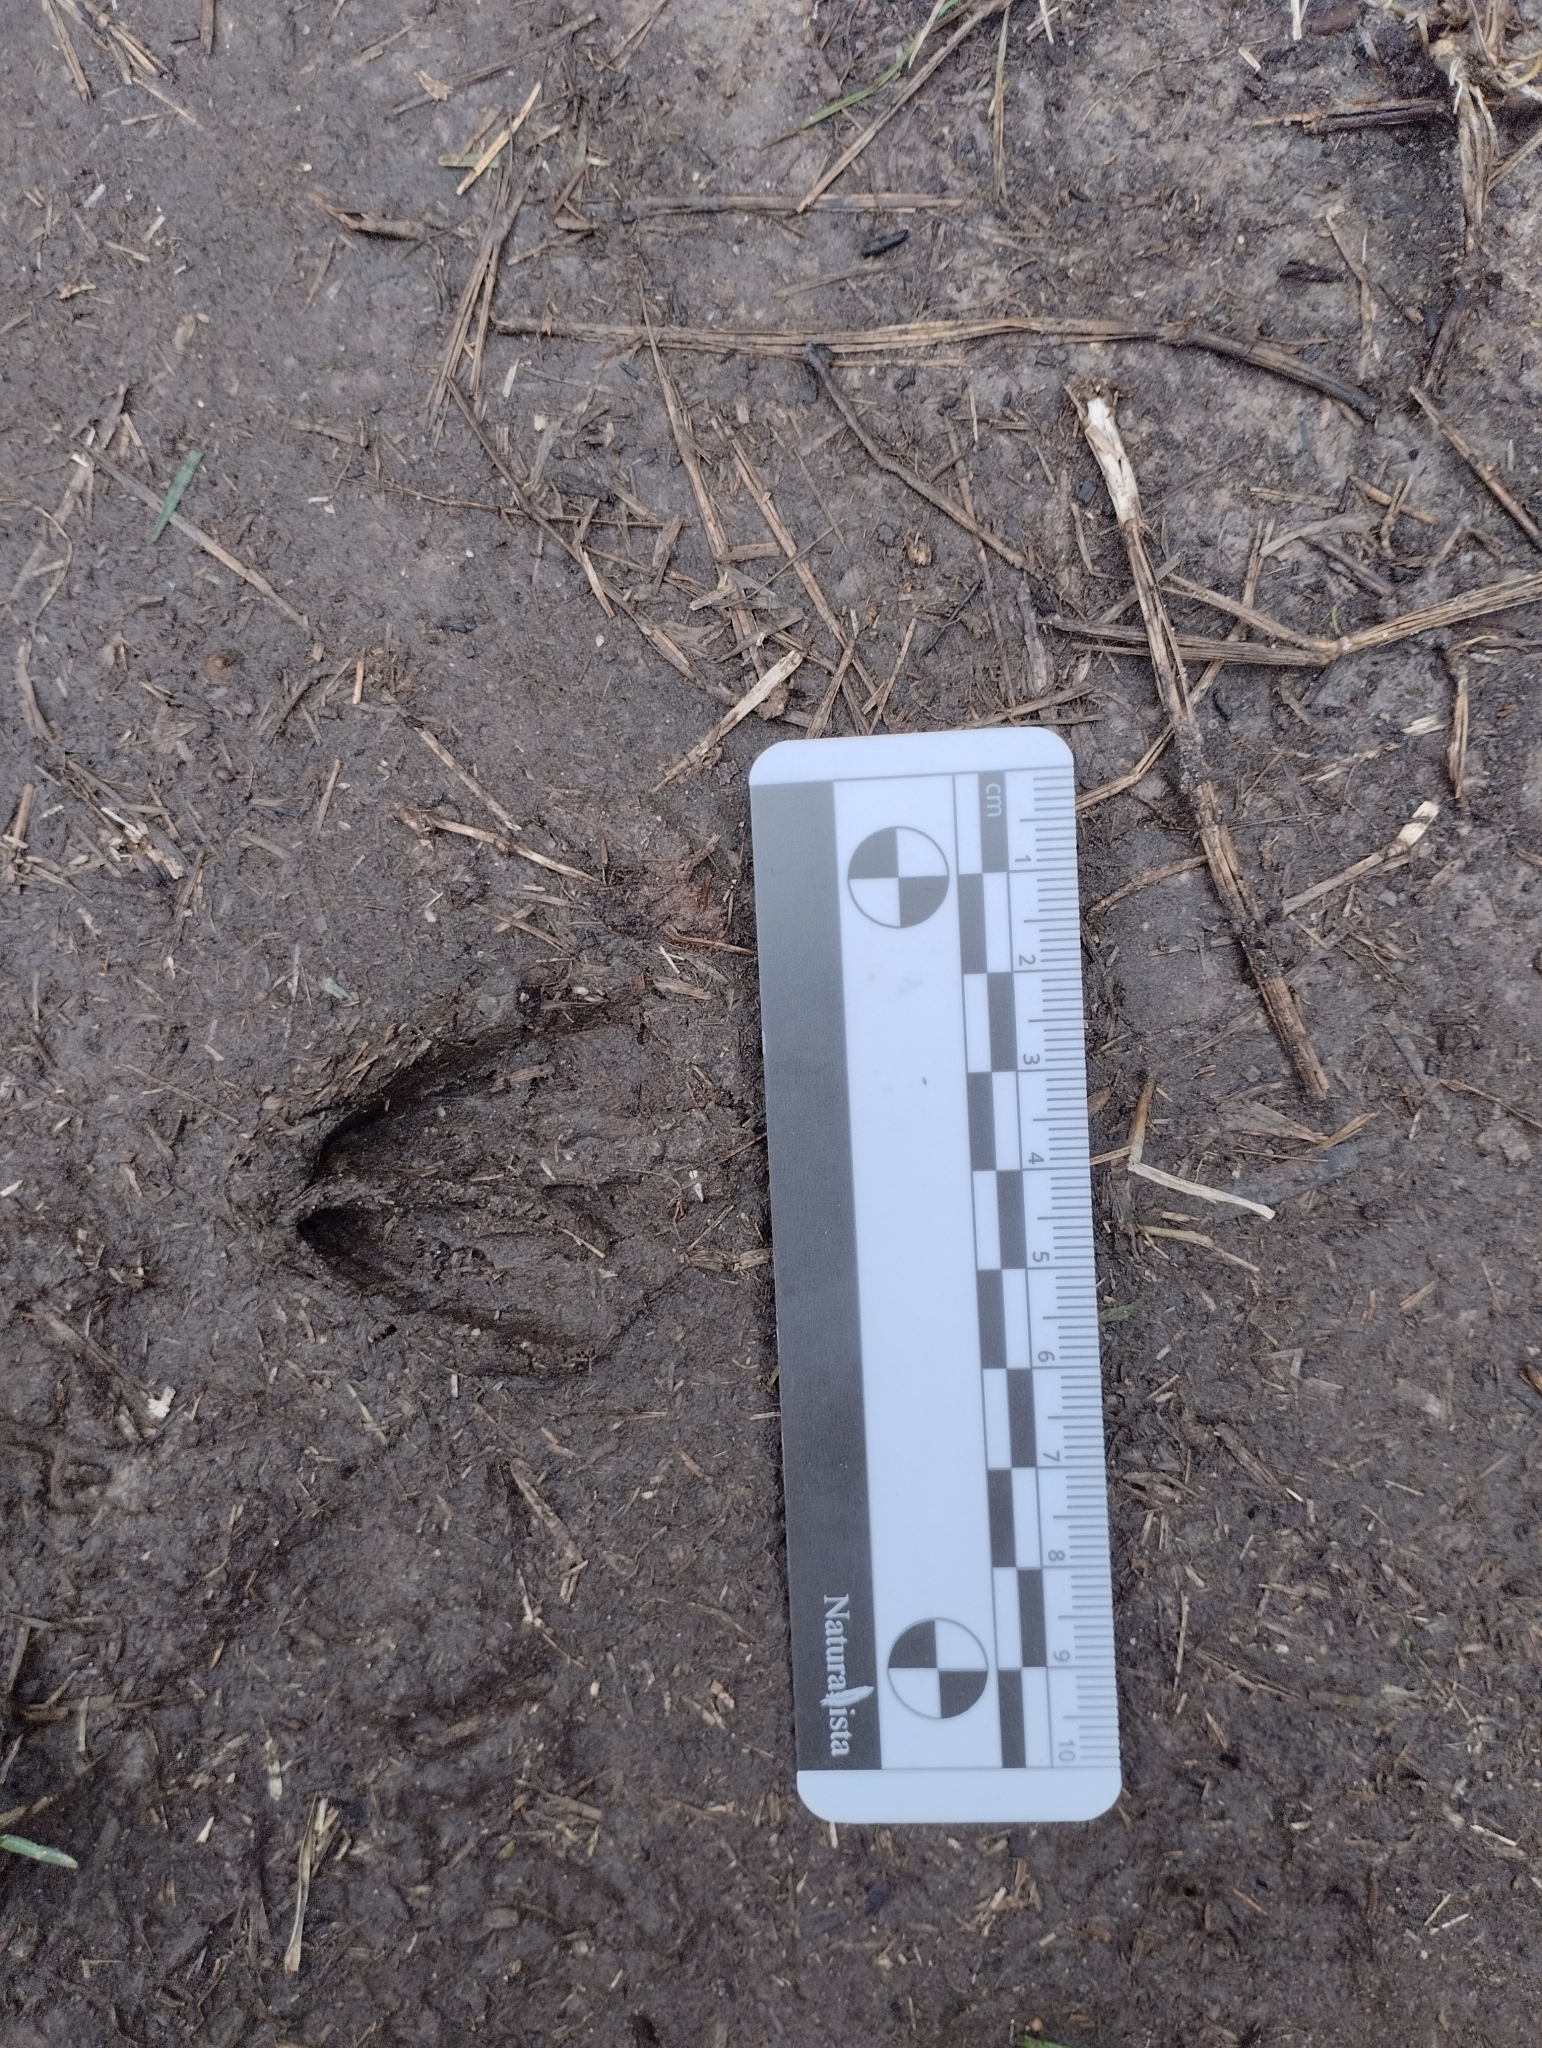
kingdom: Animalia
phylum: Chordata
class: Mammalia
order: Artiodactyla
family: Cervidae
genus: Mazama
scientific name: Mazama gouazoubira
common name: Gray brocket
